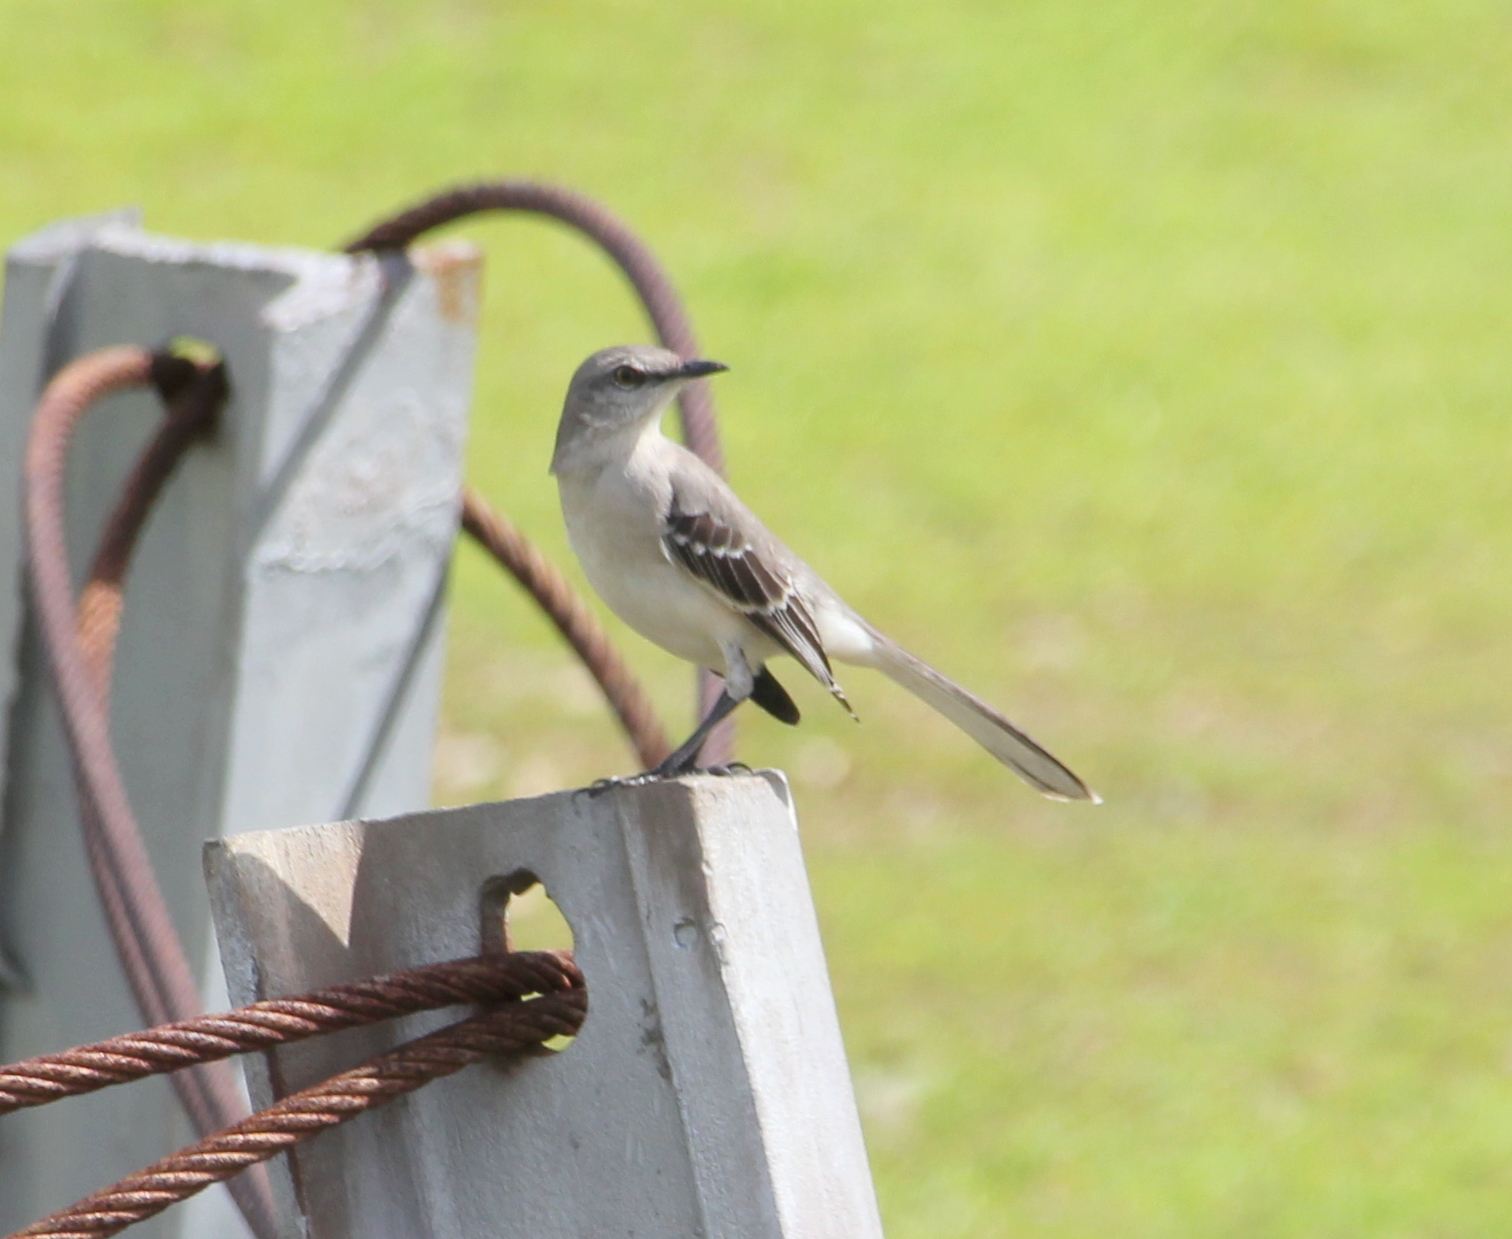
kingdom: Animalia
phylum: Chordata
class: Aves
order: Passeriformes
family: Mimidae
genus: Mimus
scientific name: Mimus polyglottos
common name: Northern mockingbird
